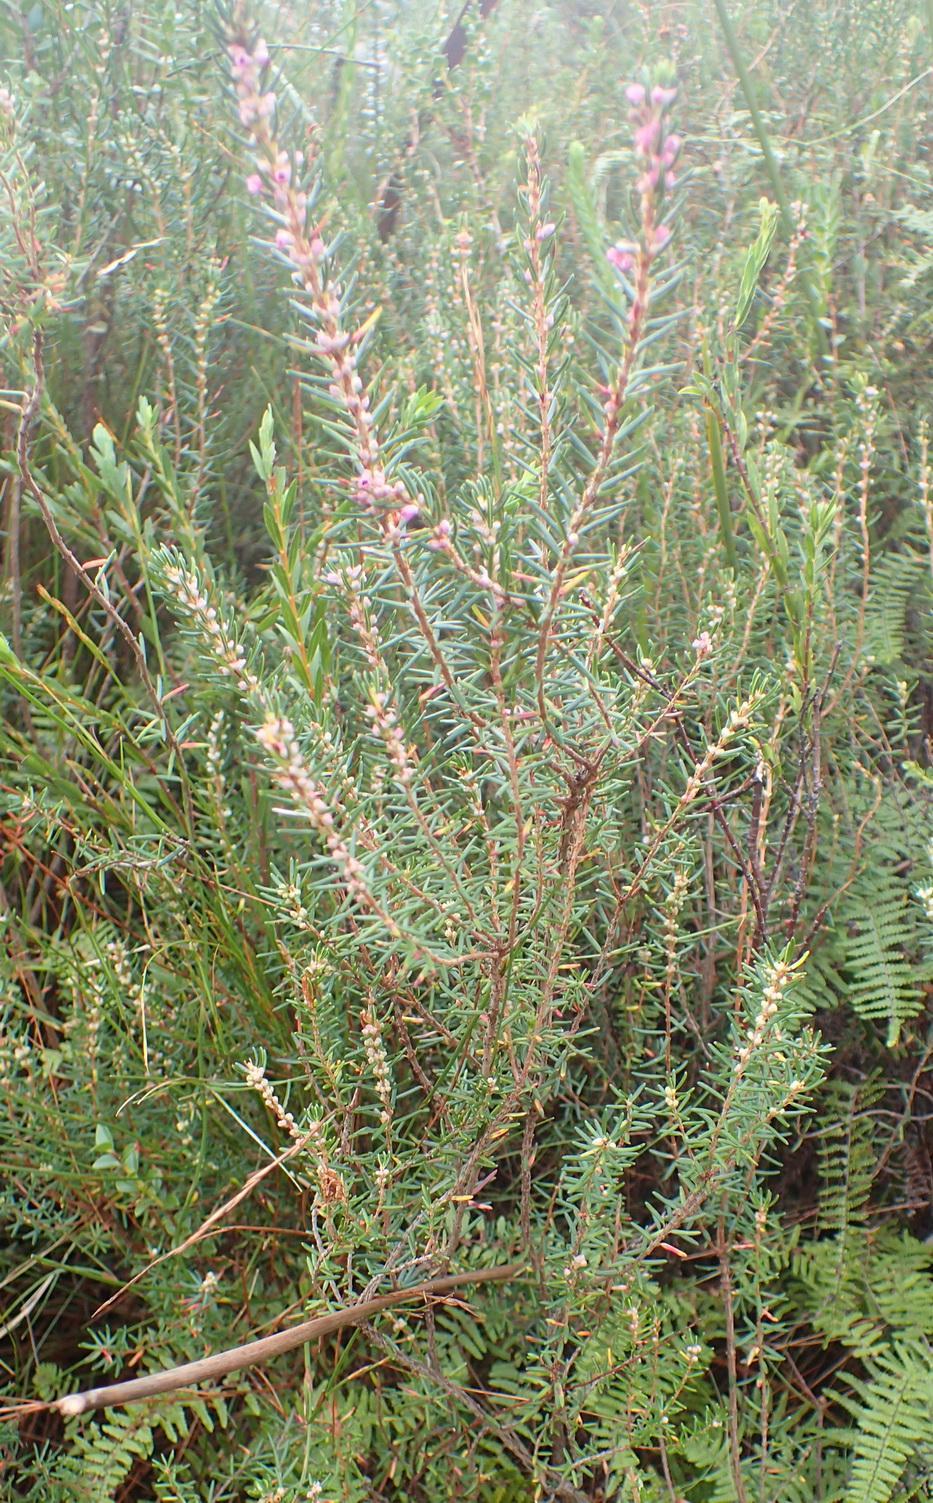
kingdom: Plantae
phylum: Tracheophyta
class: Magnoliopsida
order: Ericales
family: Ericaceae
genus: Erica
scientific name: Erica priori
